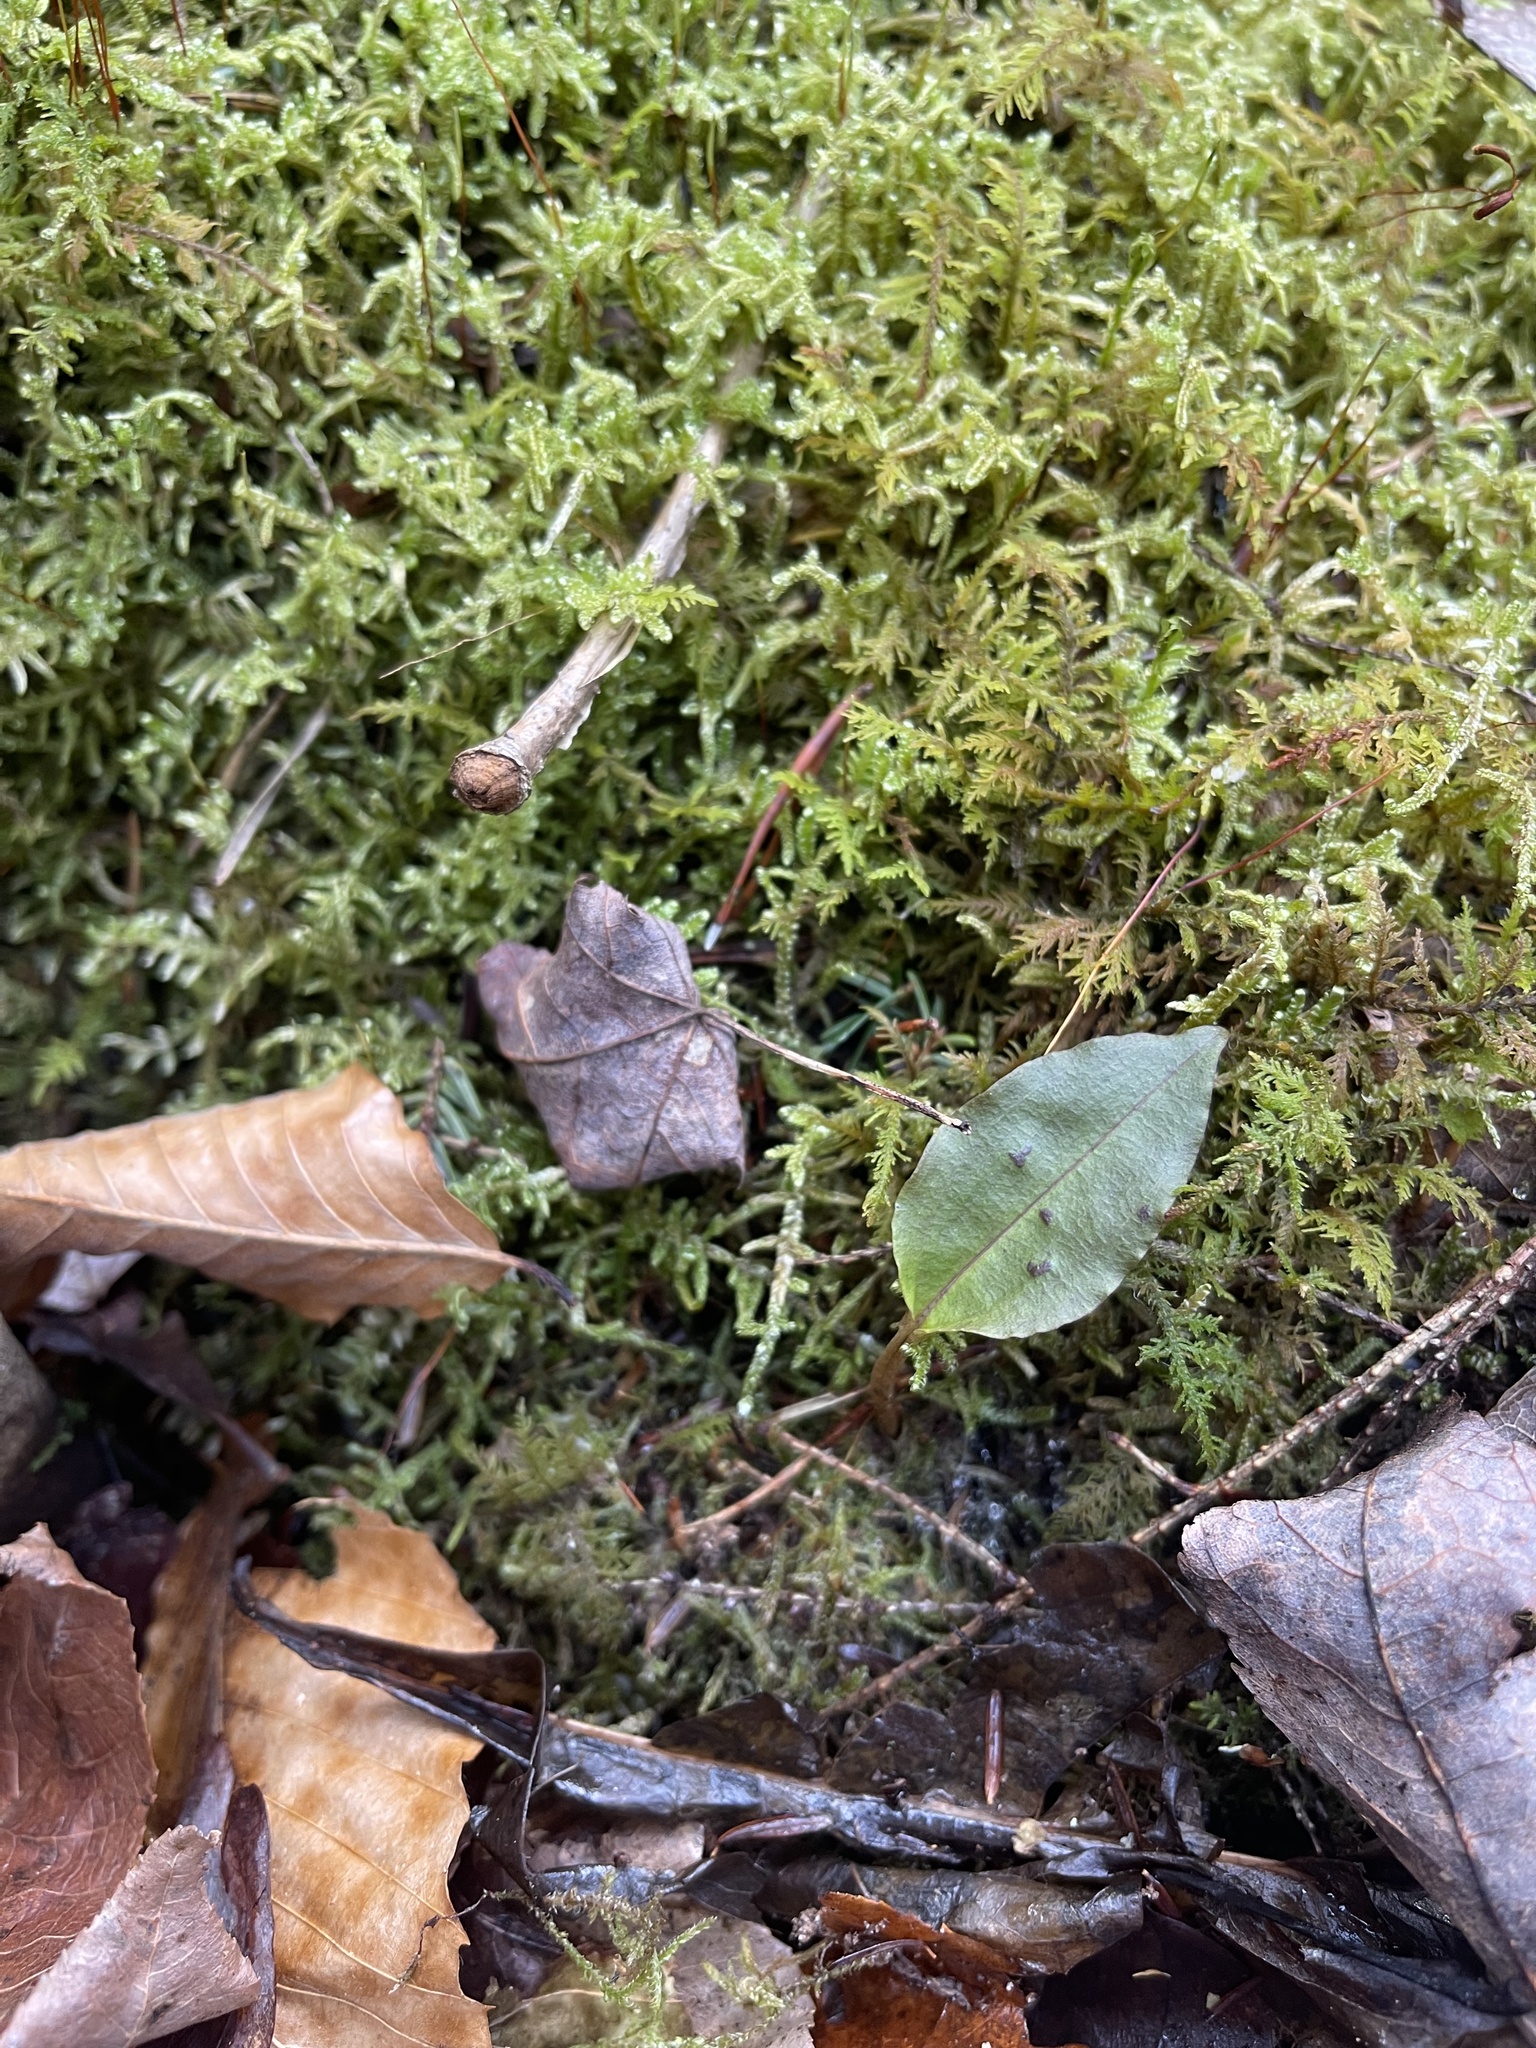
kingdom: Plantae
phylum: Tracheophyta
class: Liliopsida
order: Asparagales
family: Orchidaceae
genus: Tipularia
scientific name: Tipularia discolor
